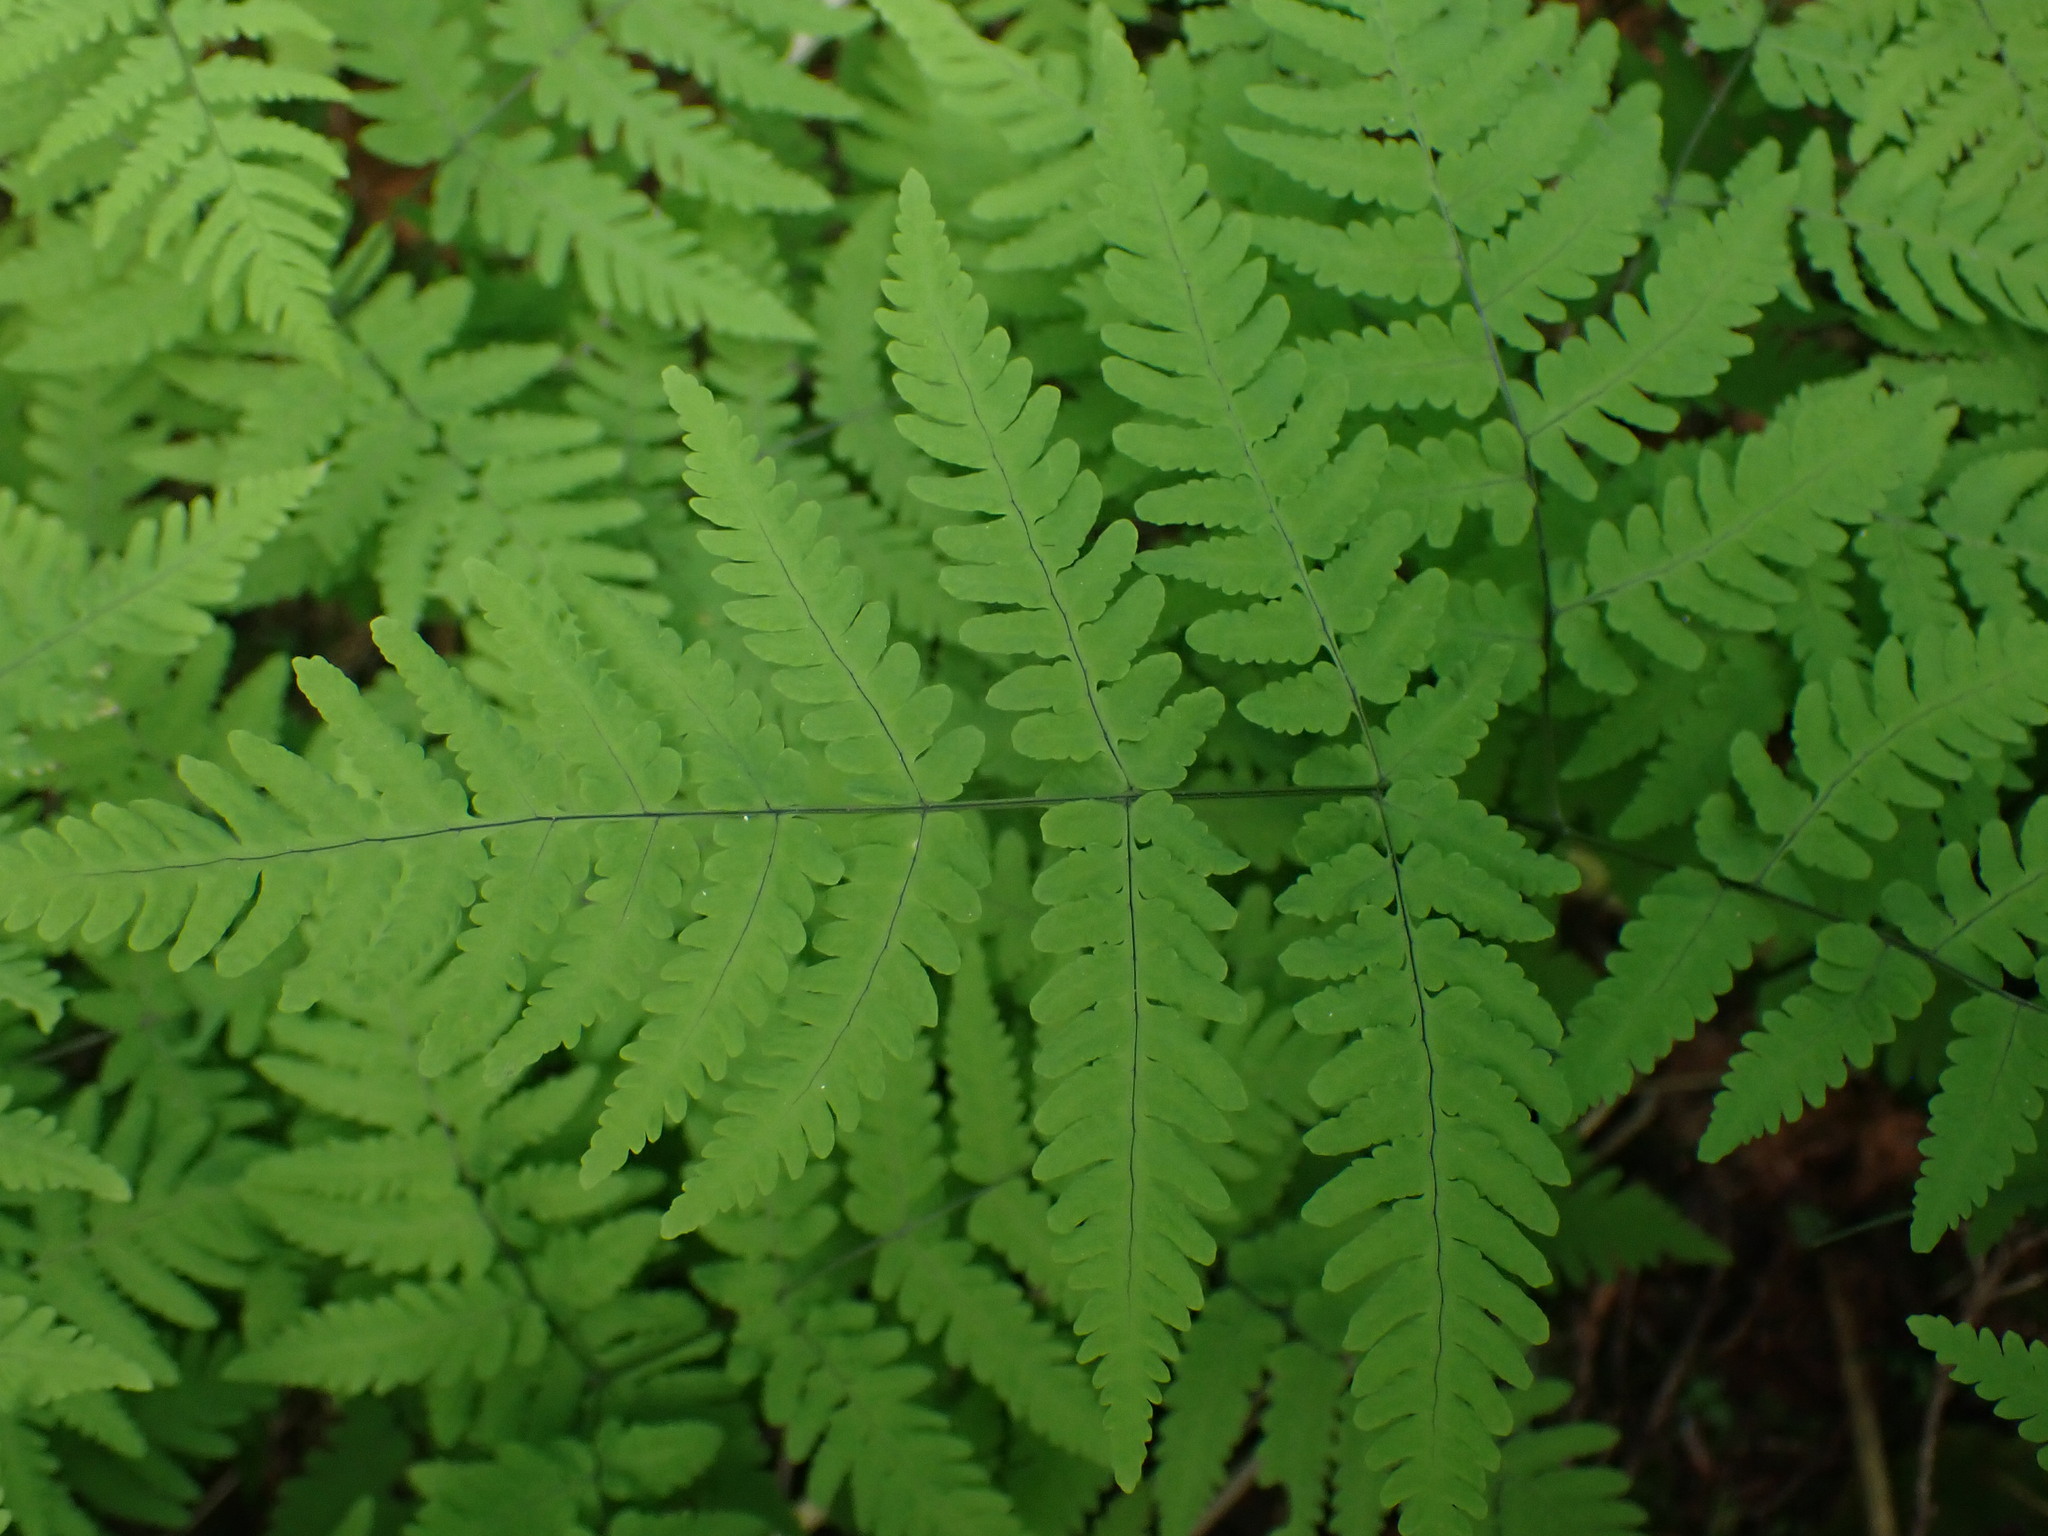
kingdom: Plantae
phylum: Tracheophyta
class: Polypodiopsida
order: Polypodiales
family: Cystopteridaceae
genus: Gymnocarpium
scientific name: Gymnocarpium disjunctum
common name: Western oak fern
